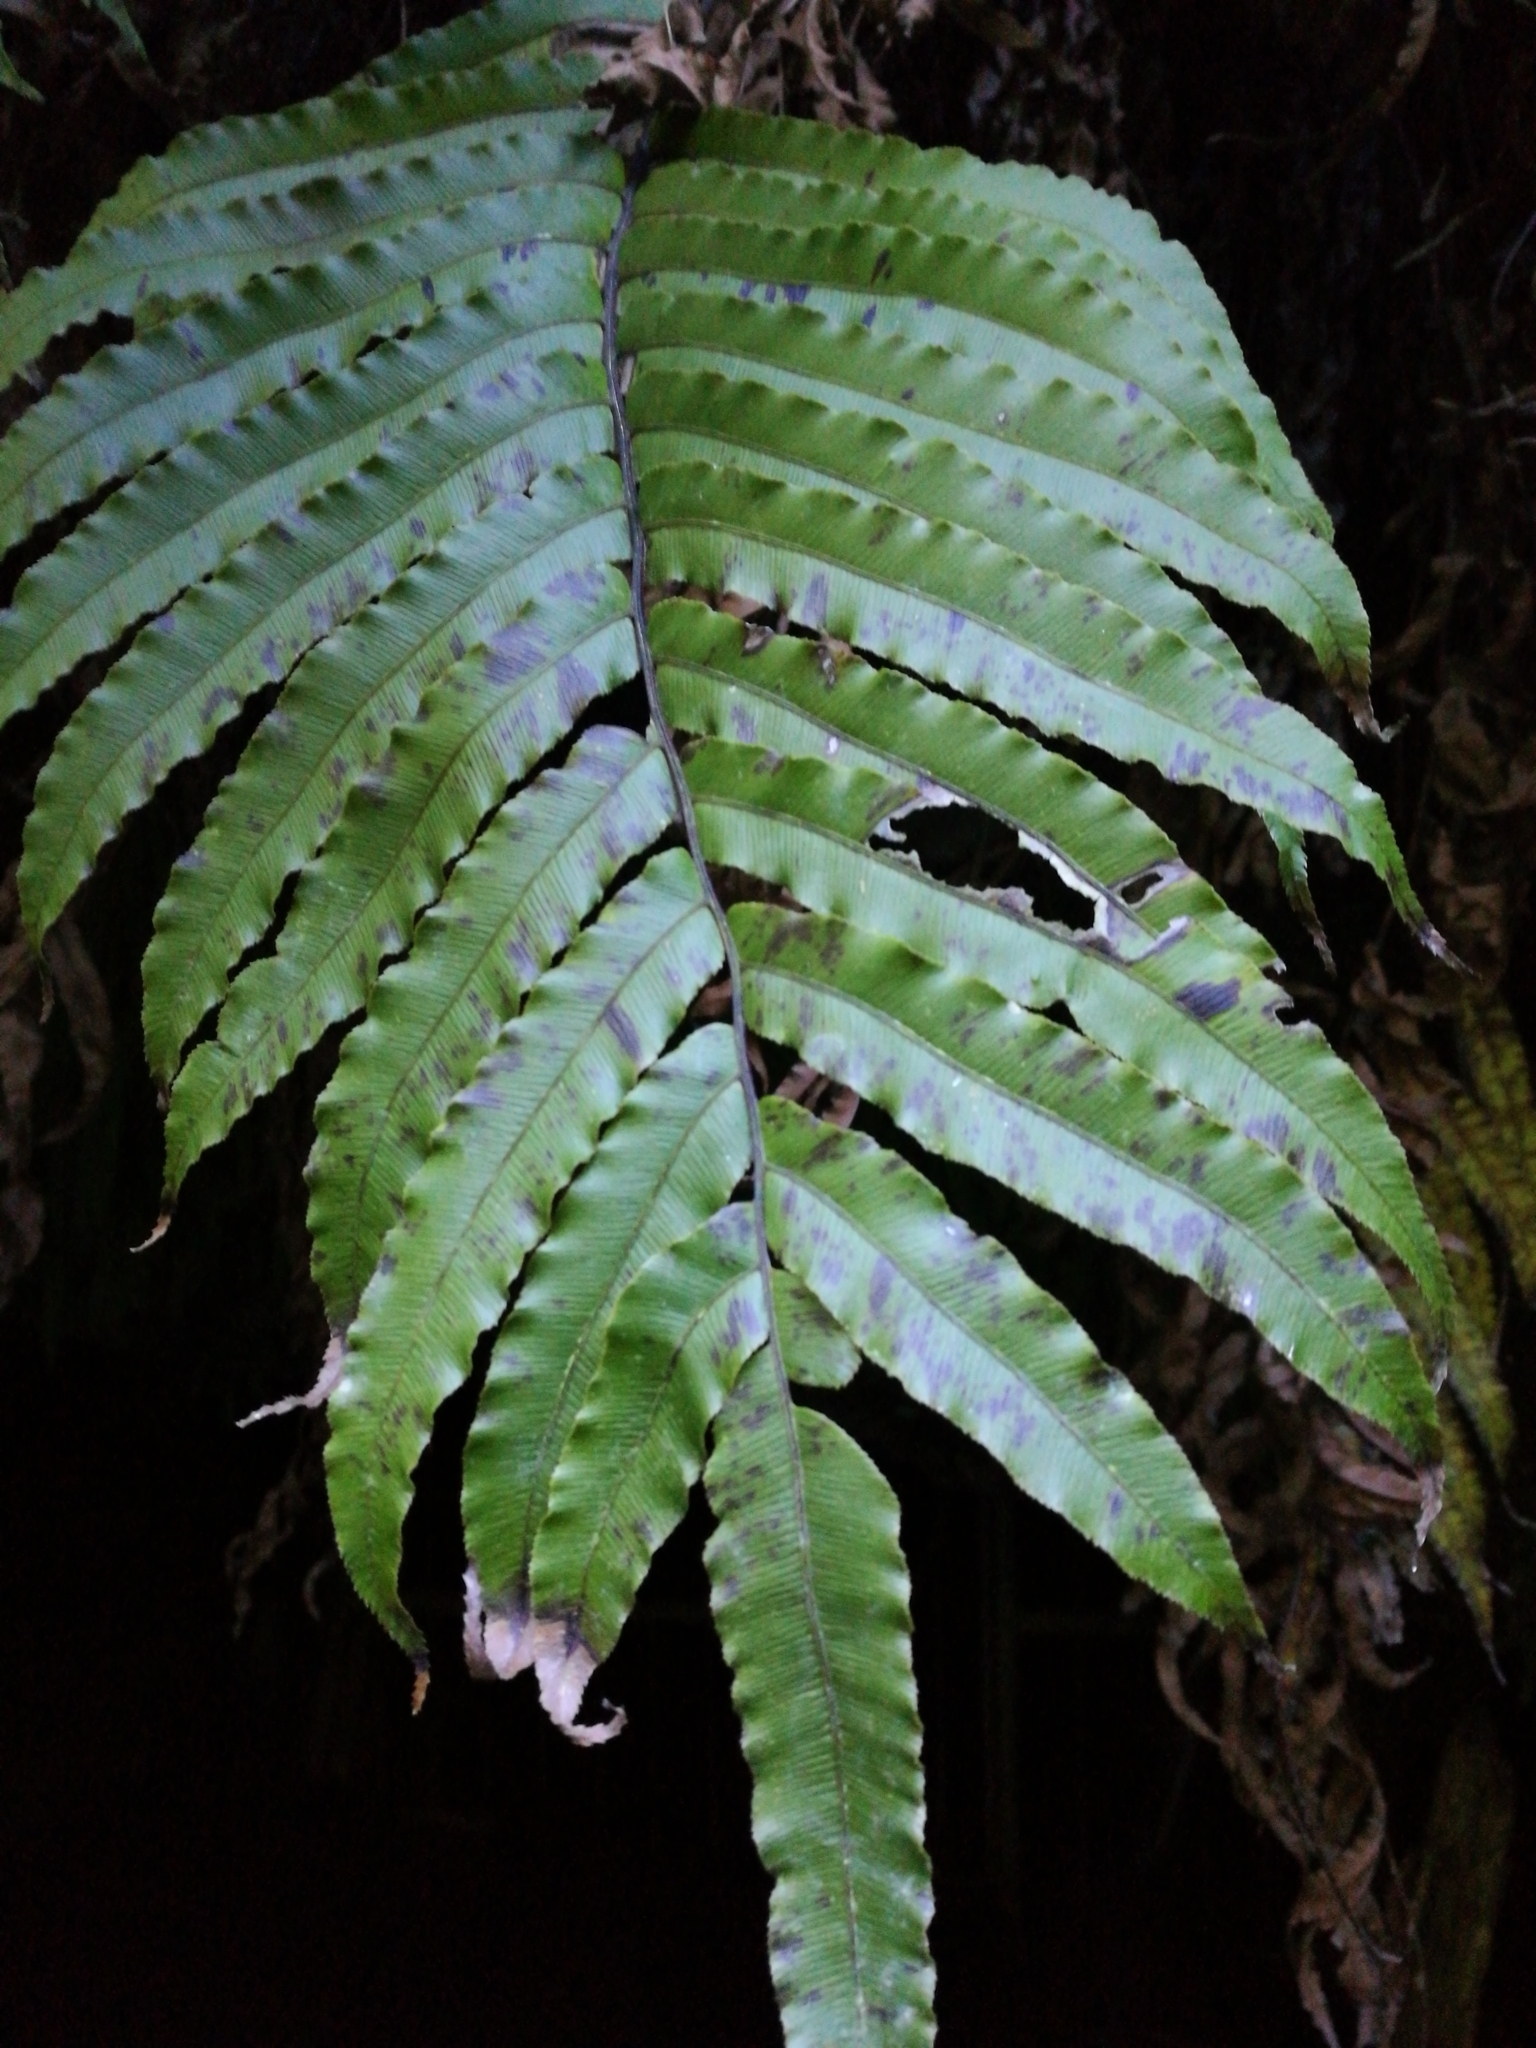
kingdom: Plantae
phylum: Tracheophyta
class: Polypodiopsida
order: Polypodiales
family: Blechnaceae
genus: Parablechnum
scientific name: Parablechnum novae-zelandiae
